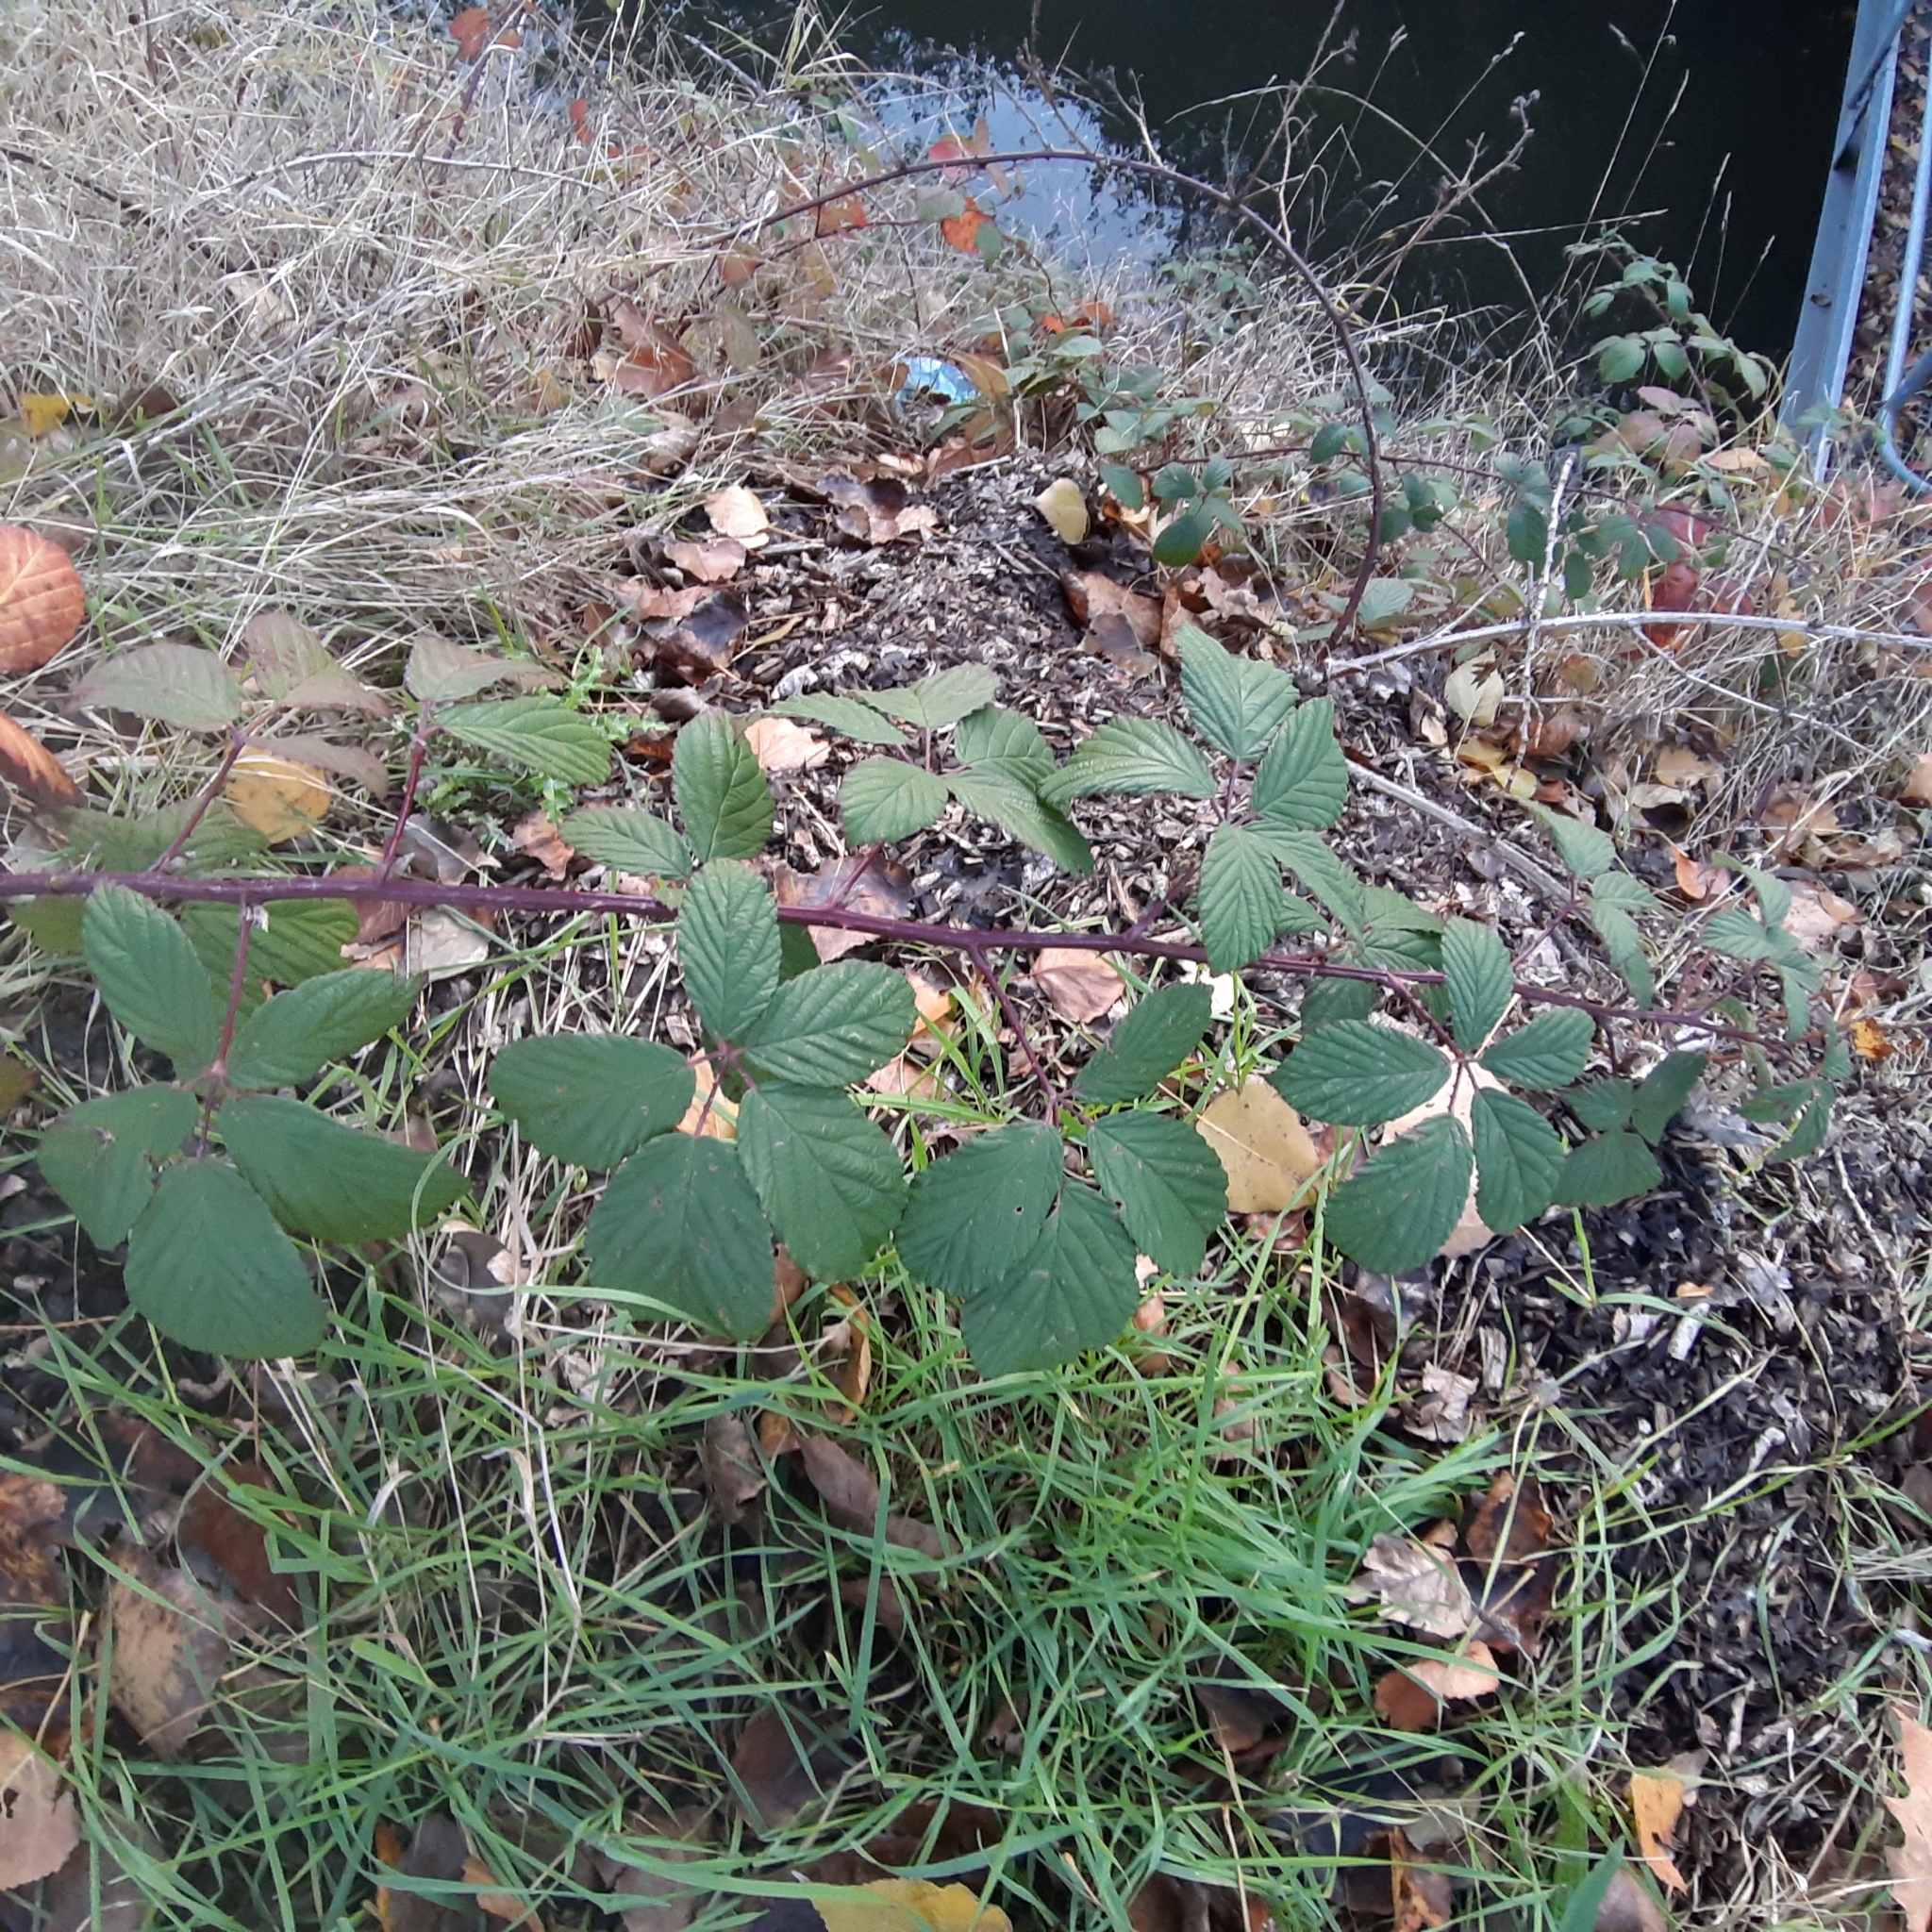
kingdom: Plantae
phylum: Tracheophyta
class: Magnoliopsida
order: Rosales
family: Rosaceae
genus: Rubus
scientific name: Rubus armeniacus
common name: Himalayan blackberry
